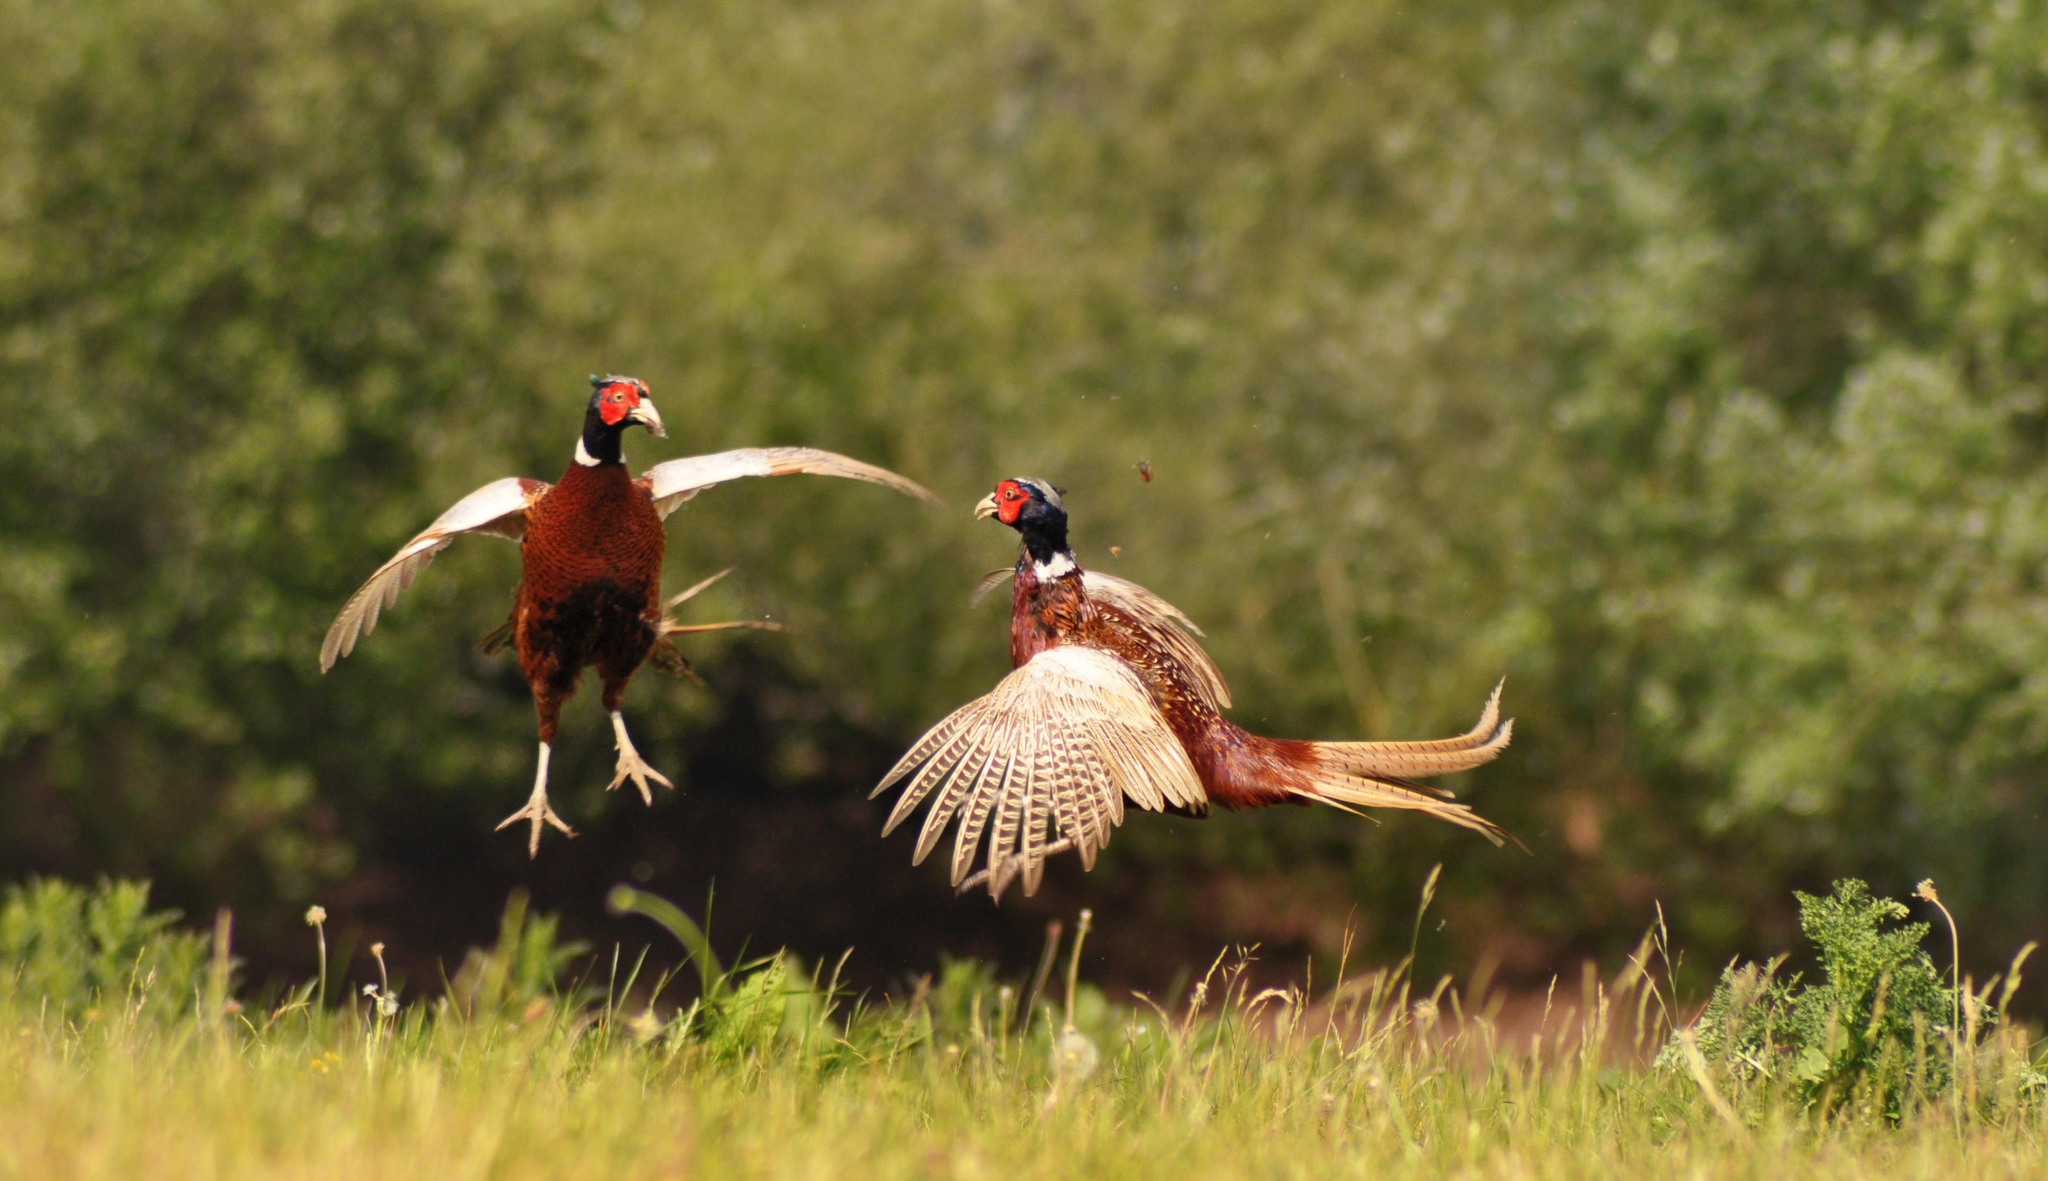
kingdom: Animalia
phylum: Chordata
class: Aves
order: Galliformes
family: Phasianidae
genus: Phasianus
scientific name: Phasianus colchicus
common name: Common pheasant
